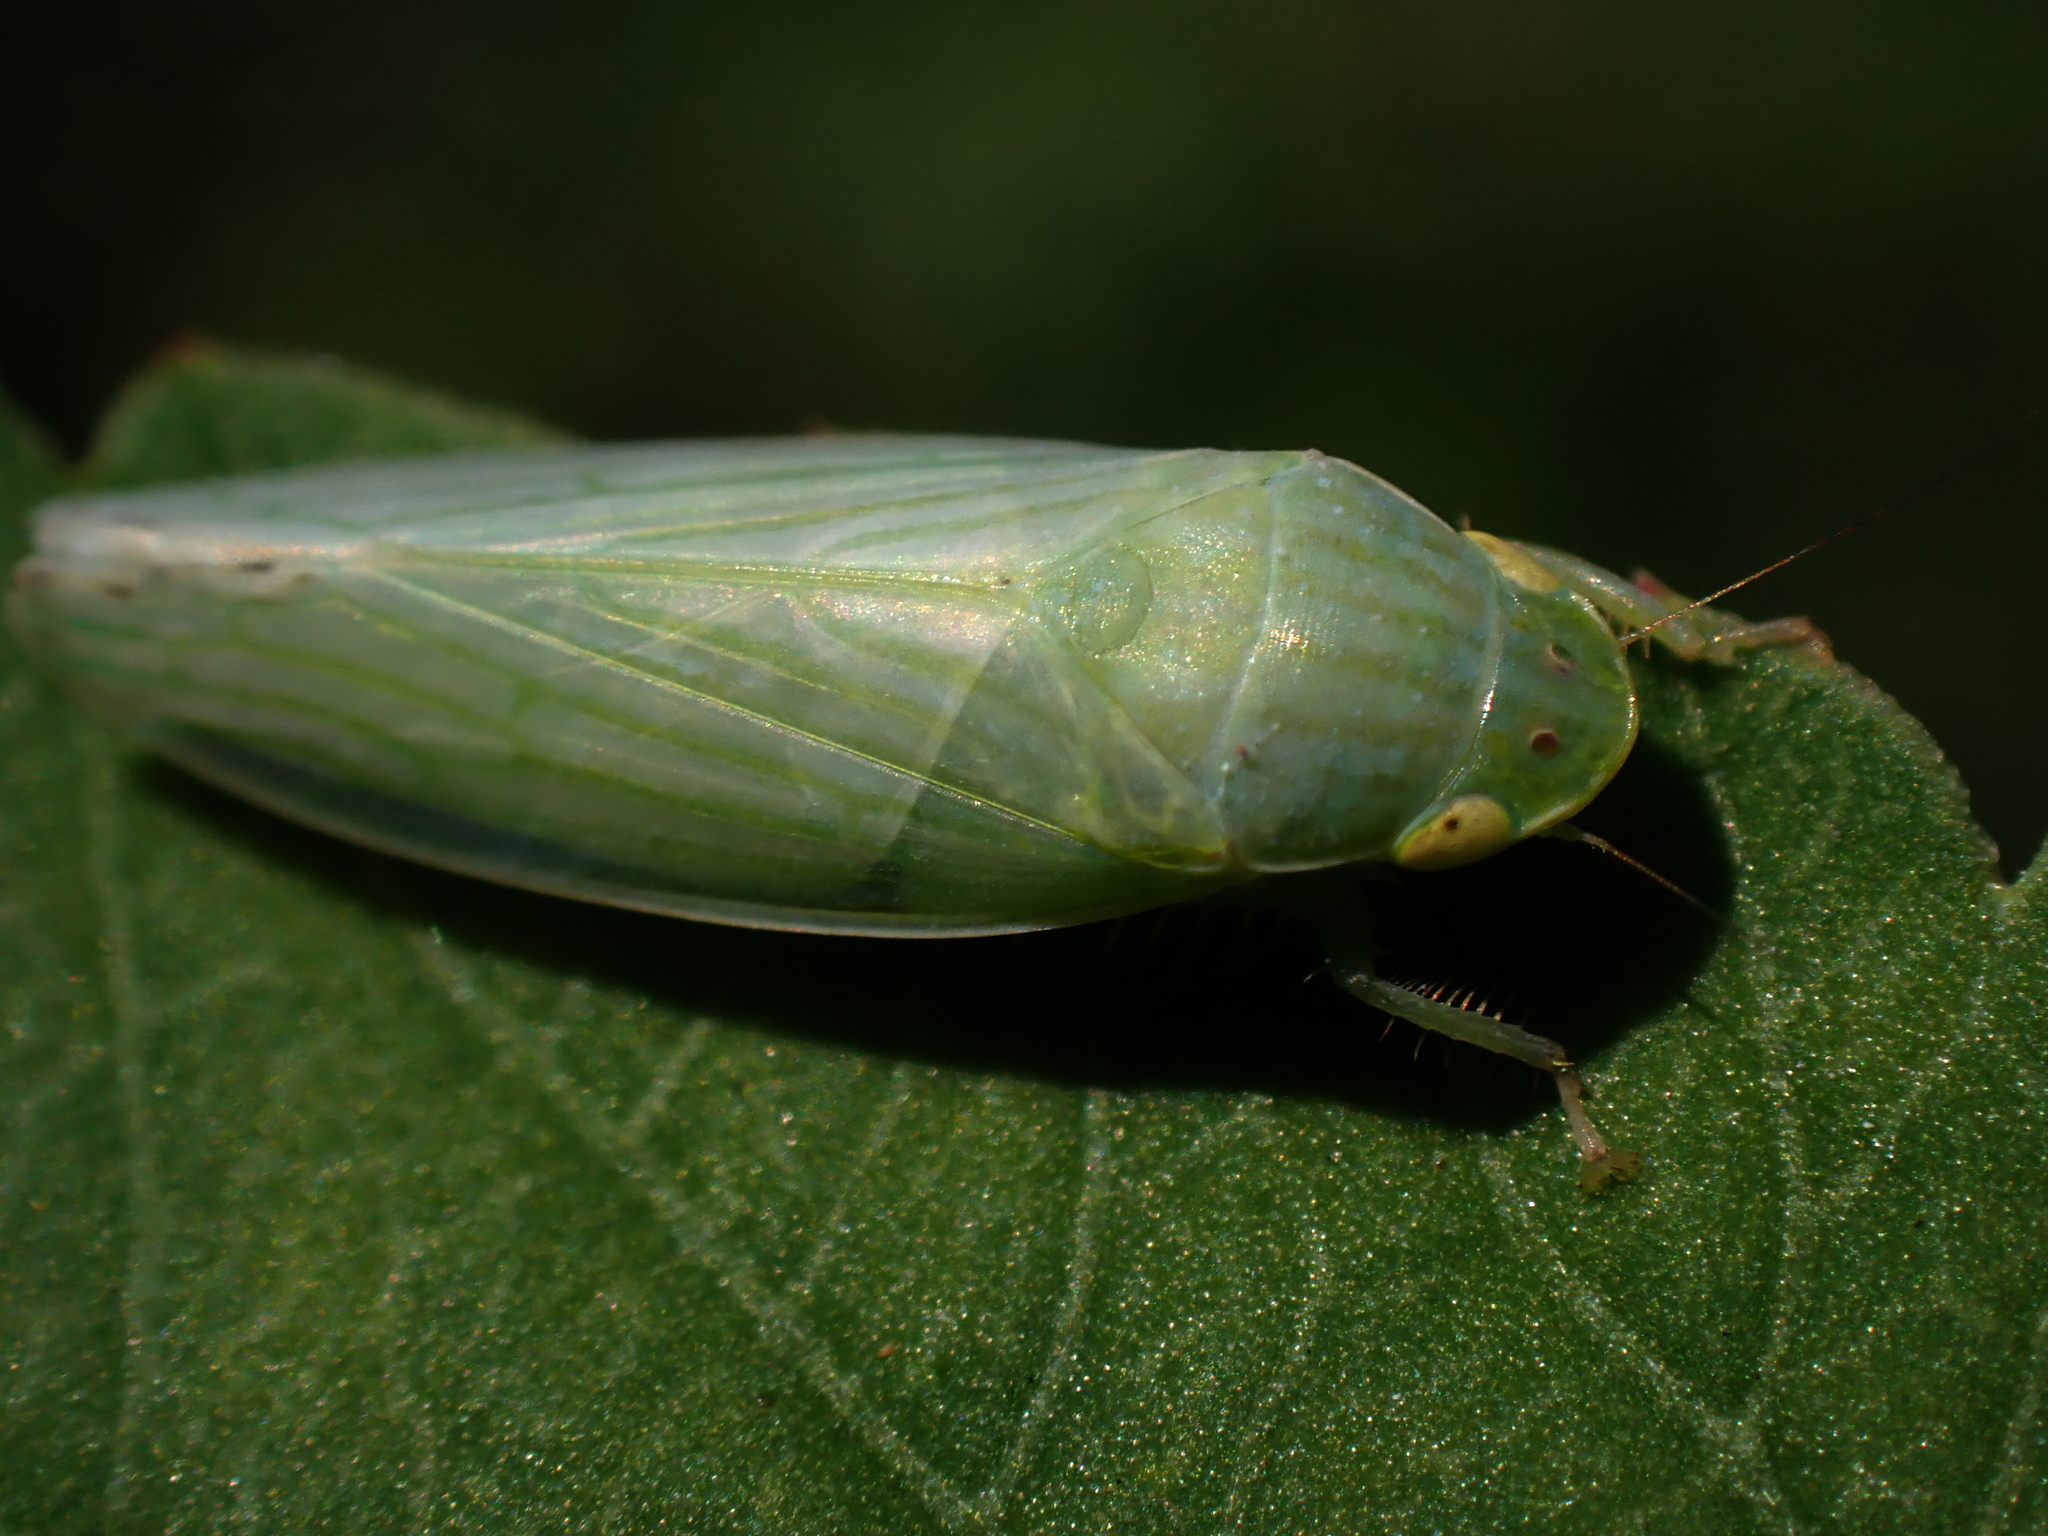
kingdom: Animalia
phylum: Arthropoda
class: Insecta
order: Hemiptera
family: Cicadellidae
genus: Gyponana
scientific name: Gyponana tenella
